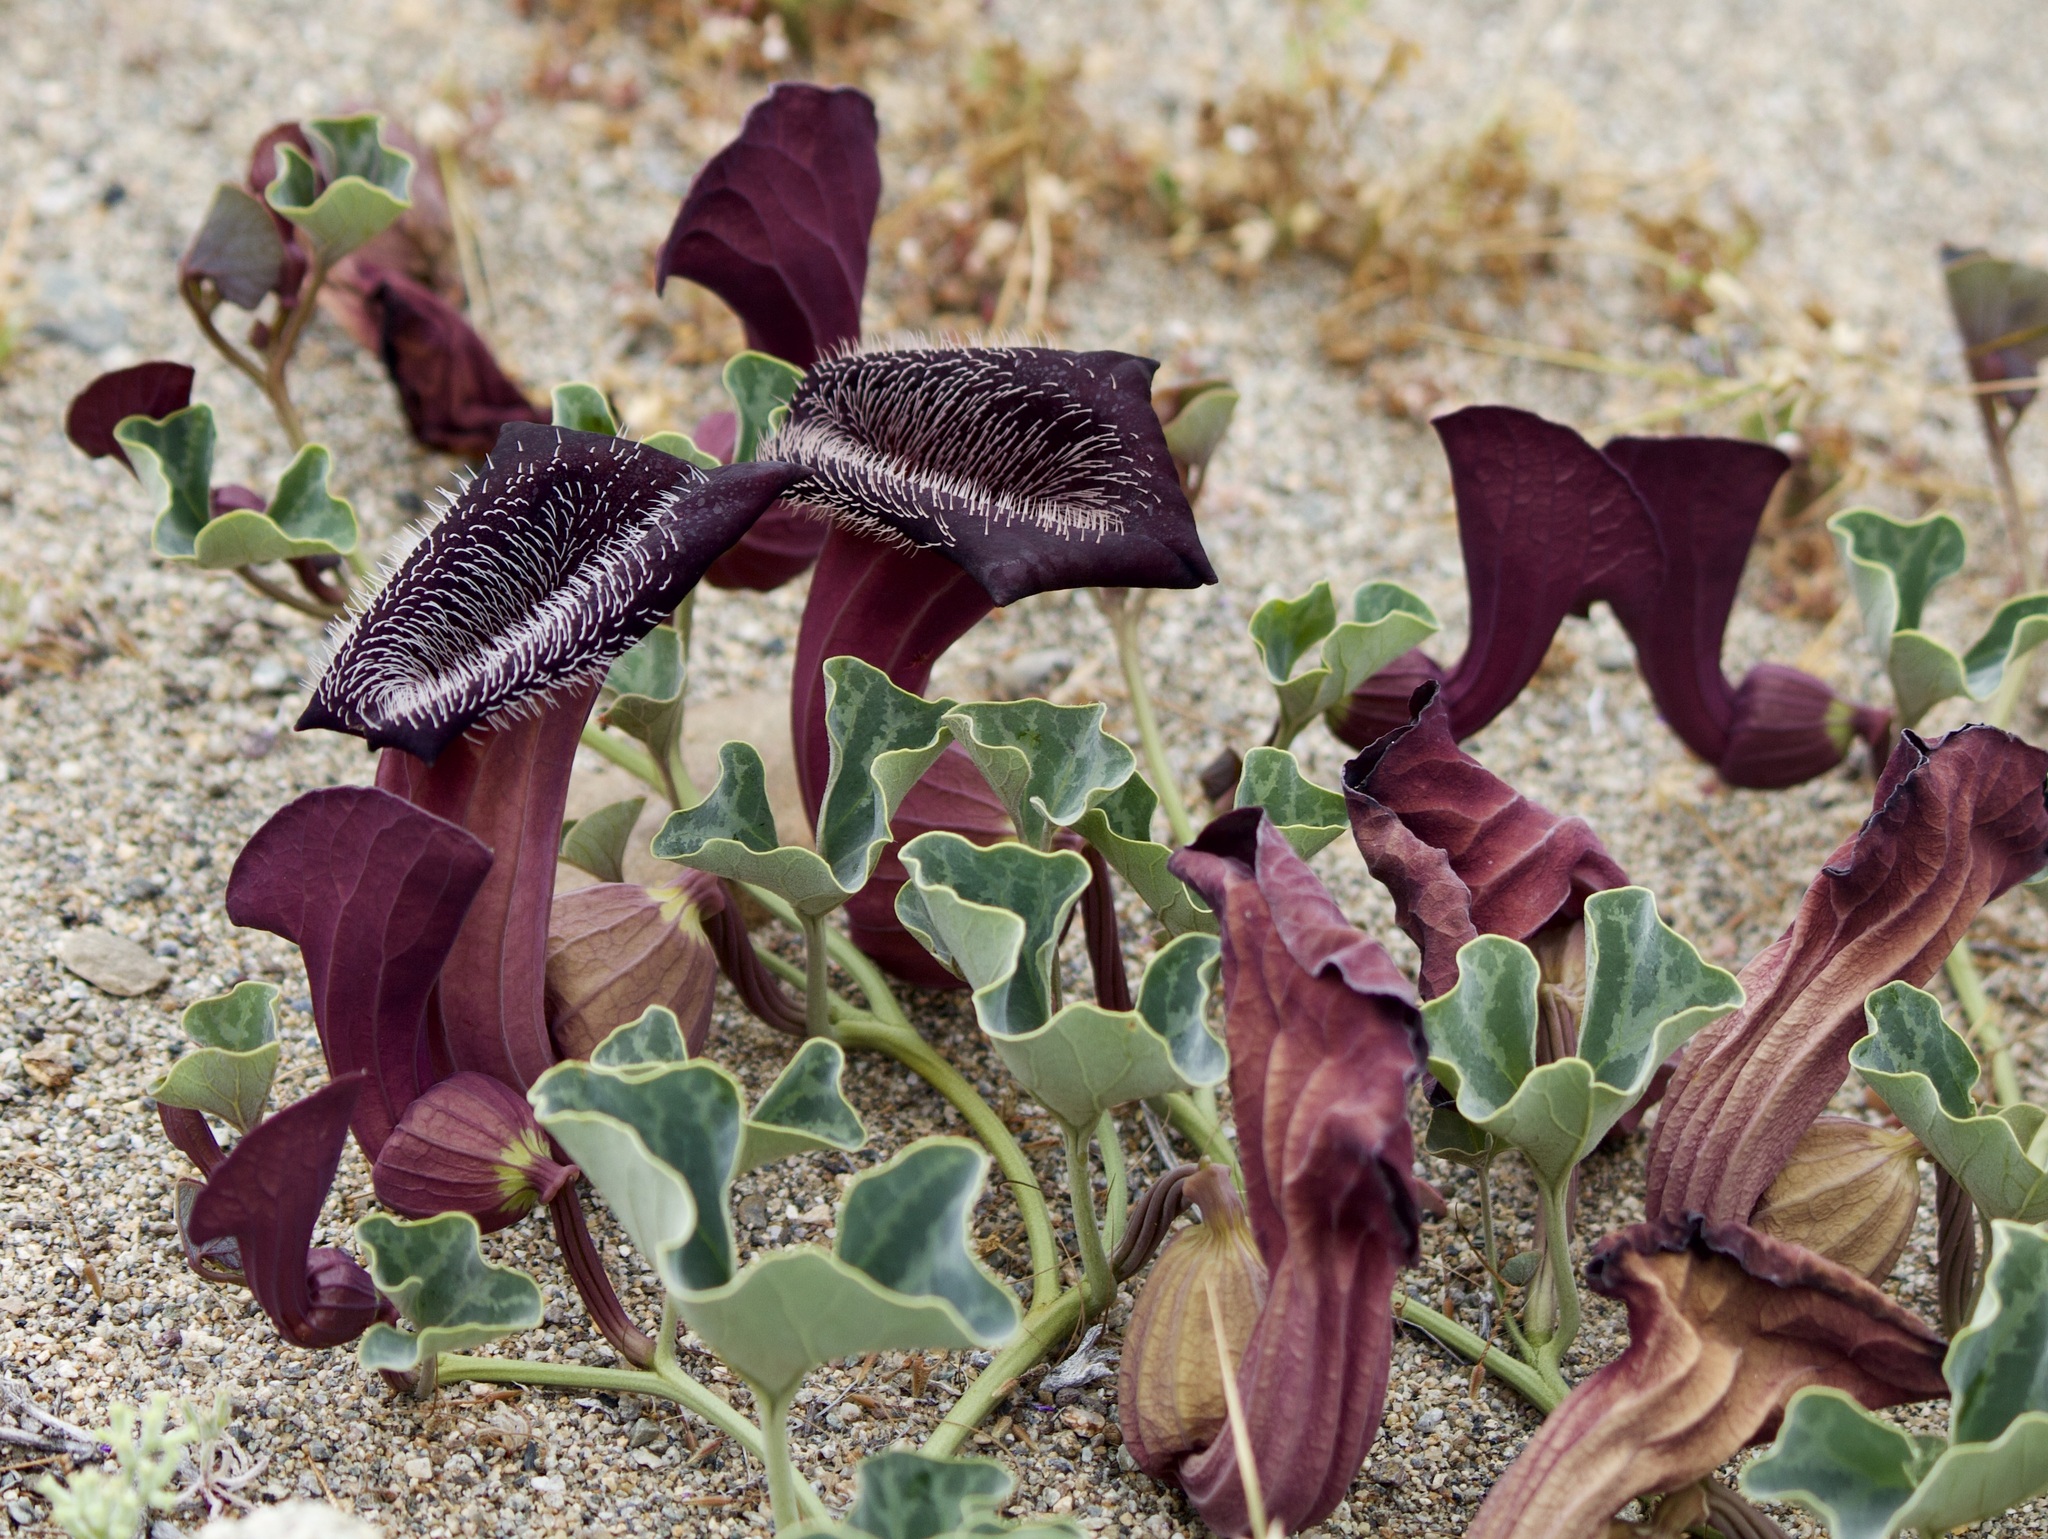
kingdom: Plantae
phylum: Tracheophyta
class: Magnoliopsida
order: Piperales
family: Aristolochiaceae
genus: Aristolochia
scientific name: Aristolochia chilensis
